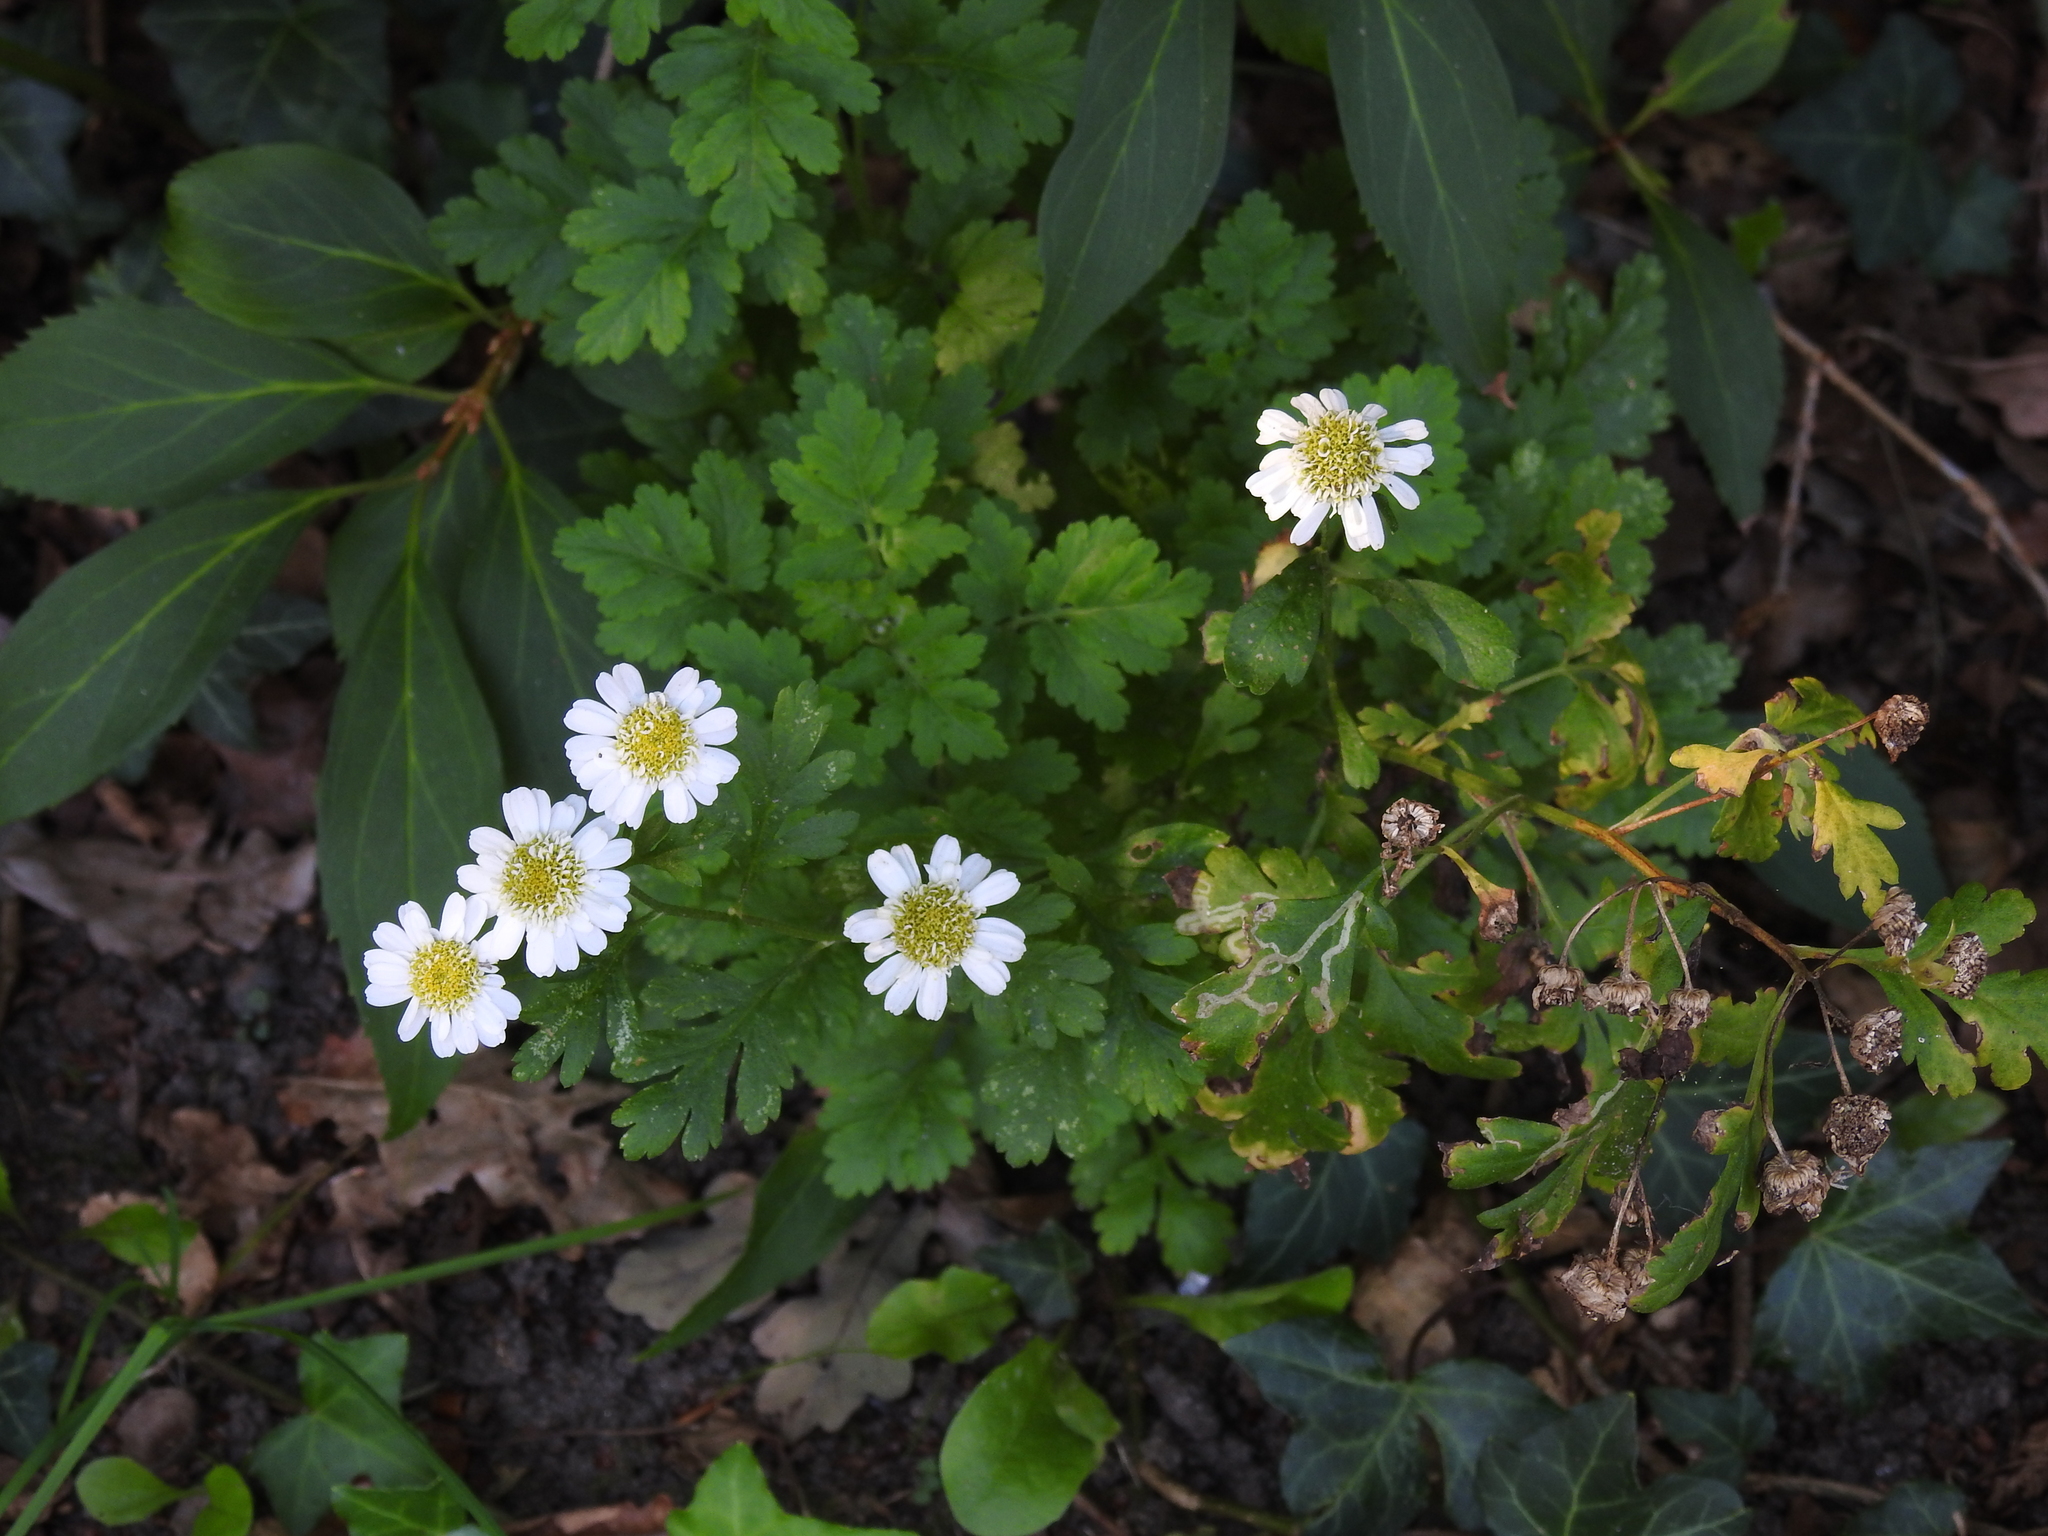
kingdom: Plantae
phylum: Tracheophyta
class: Magnoliopsida
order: Asterales
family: Asteraceae
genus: Tanacetum
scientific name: Tanacetum parthenium
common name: Feverfew
